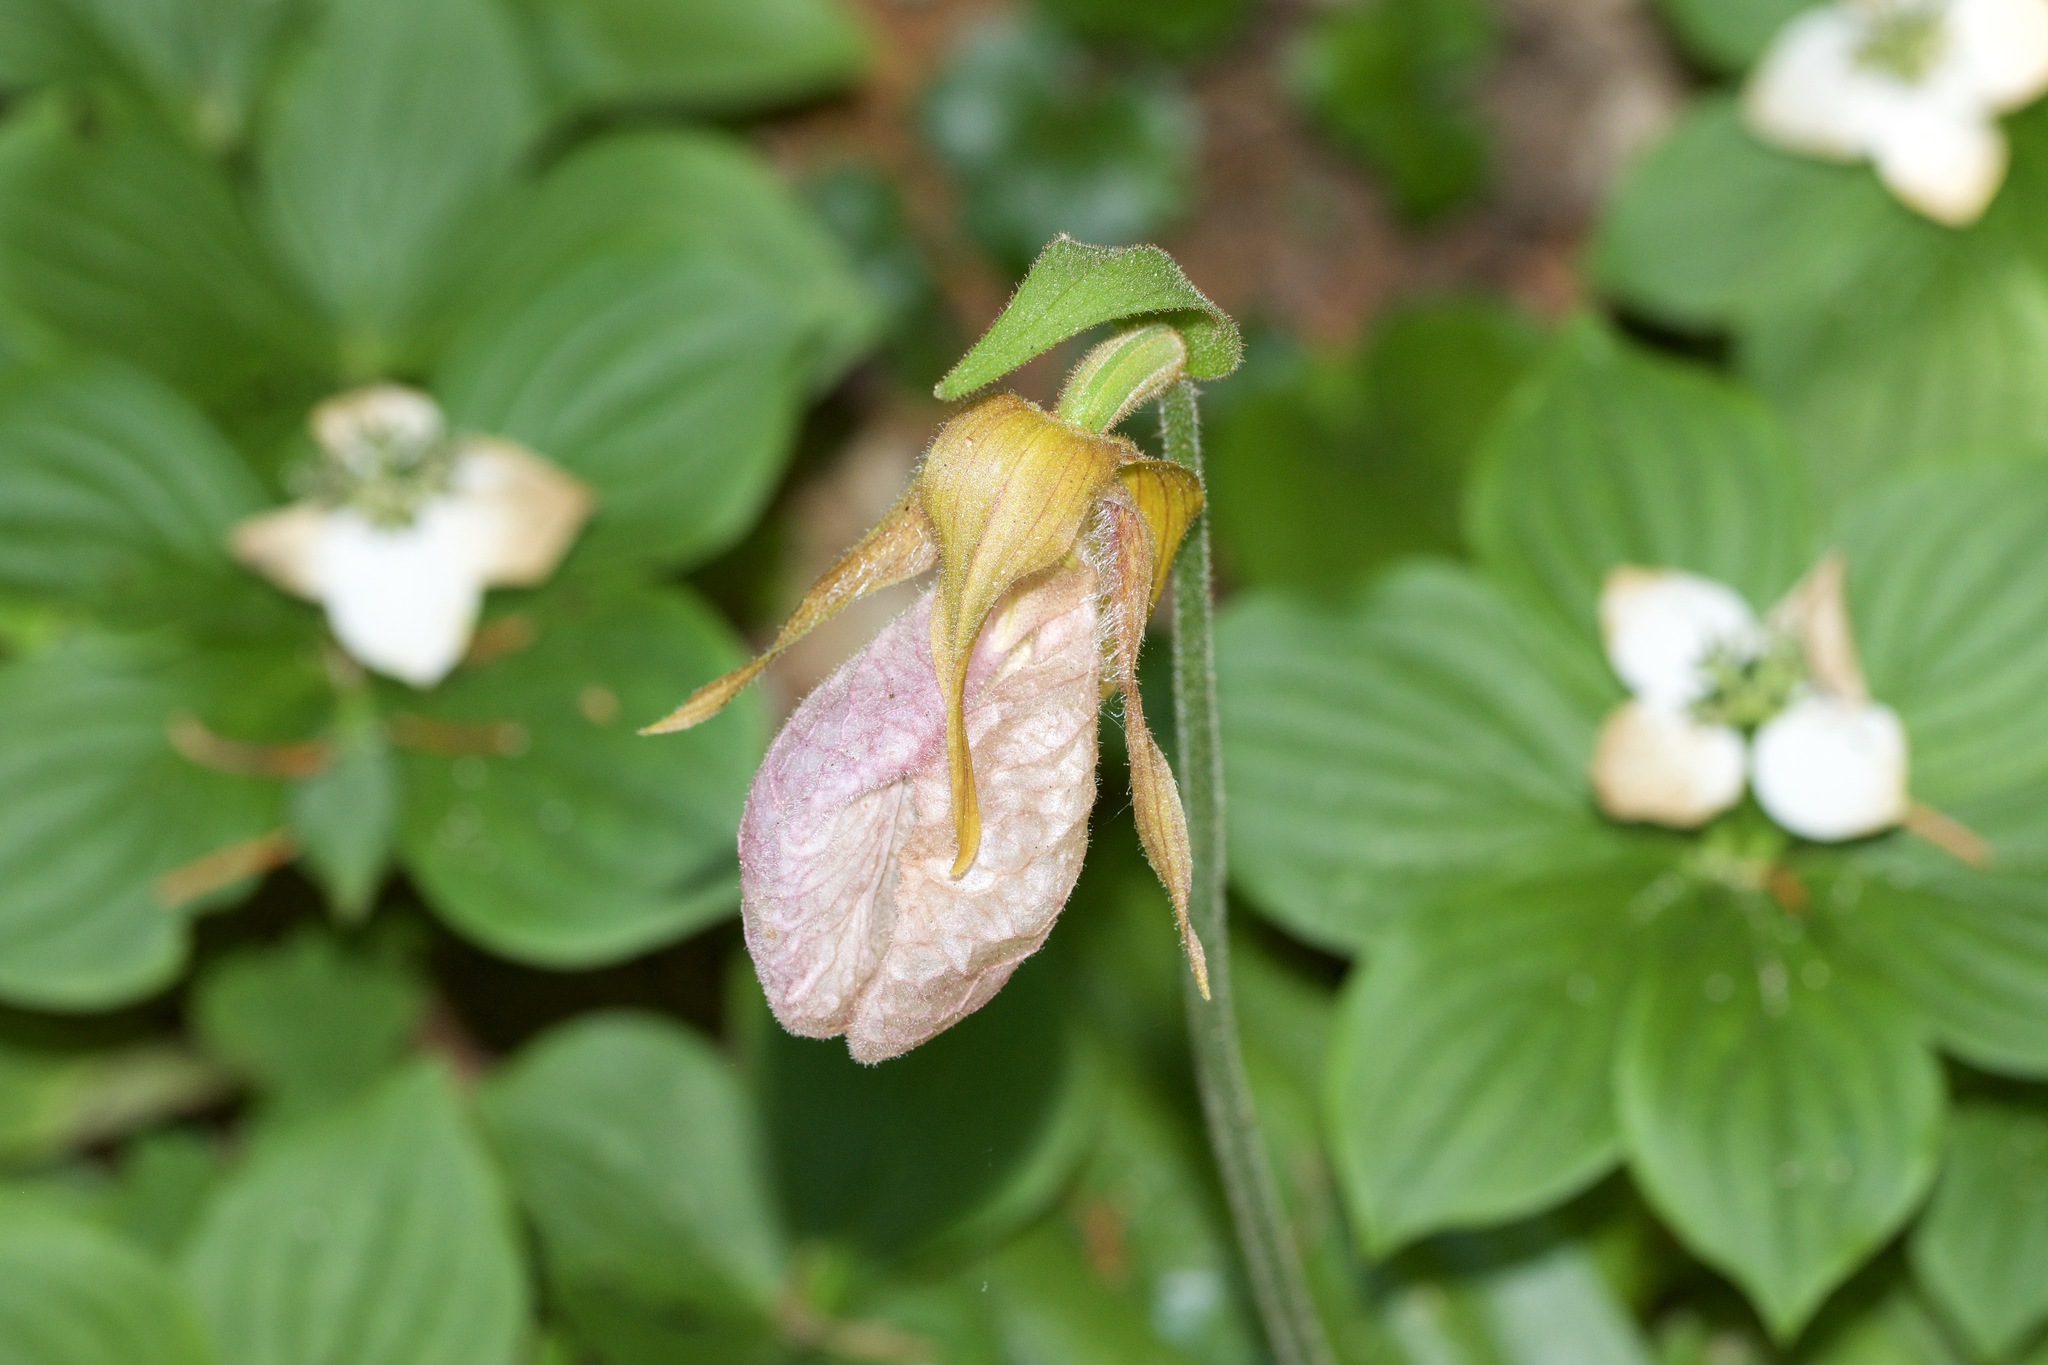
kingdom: Plantae
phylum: Tracheophyta
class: Liliopsida
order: Asparagales
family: Orchidaceae
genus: Cypripedium
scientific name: Cypripedium acaule
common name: Pink lady's-slipper
